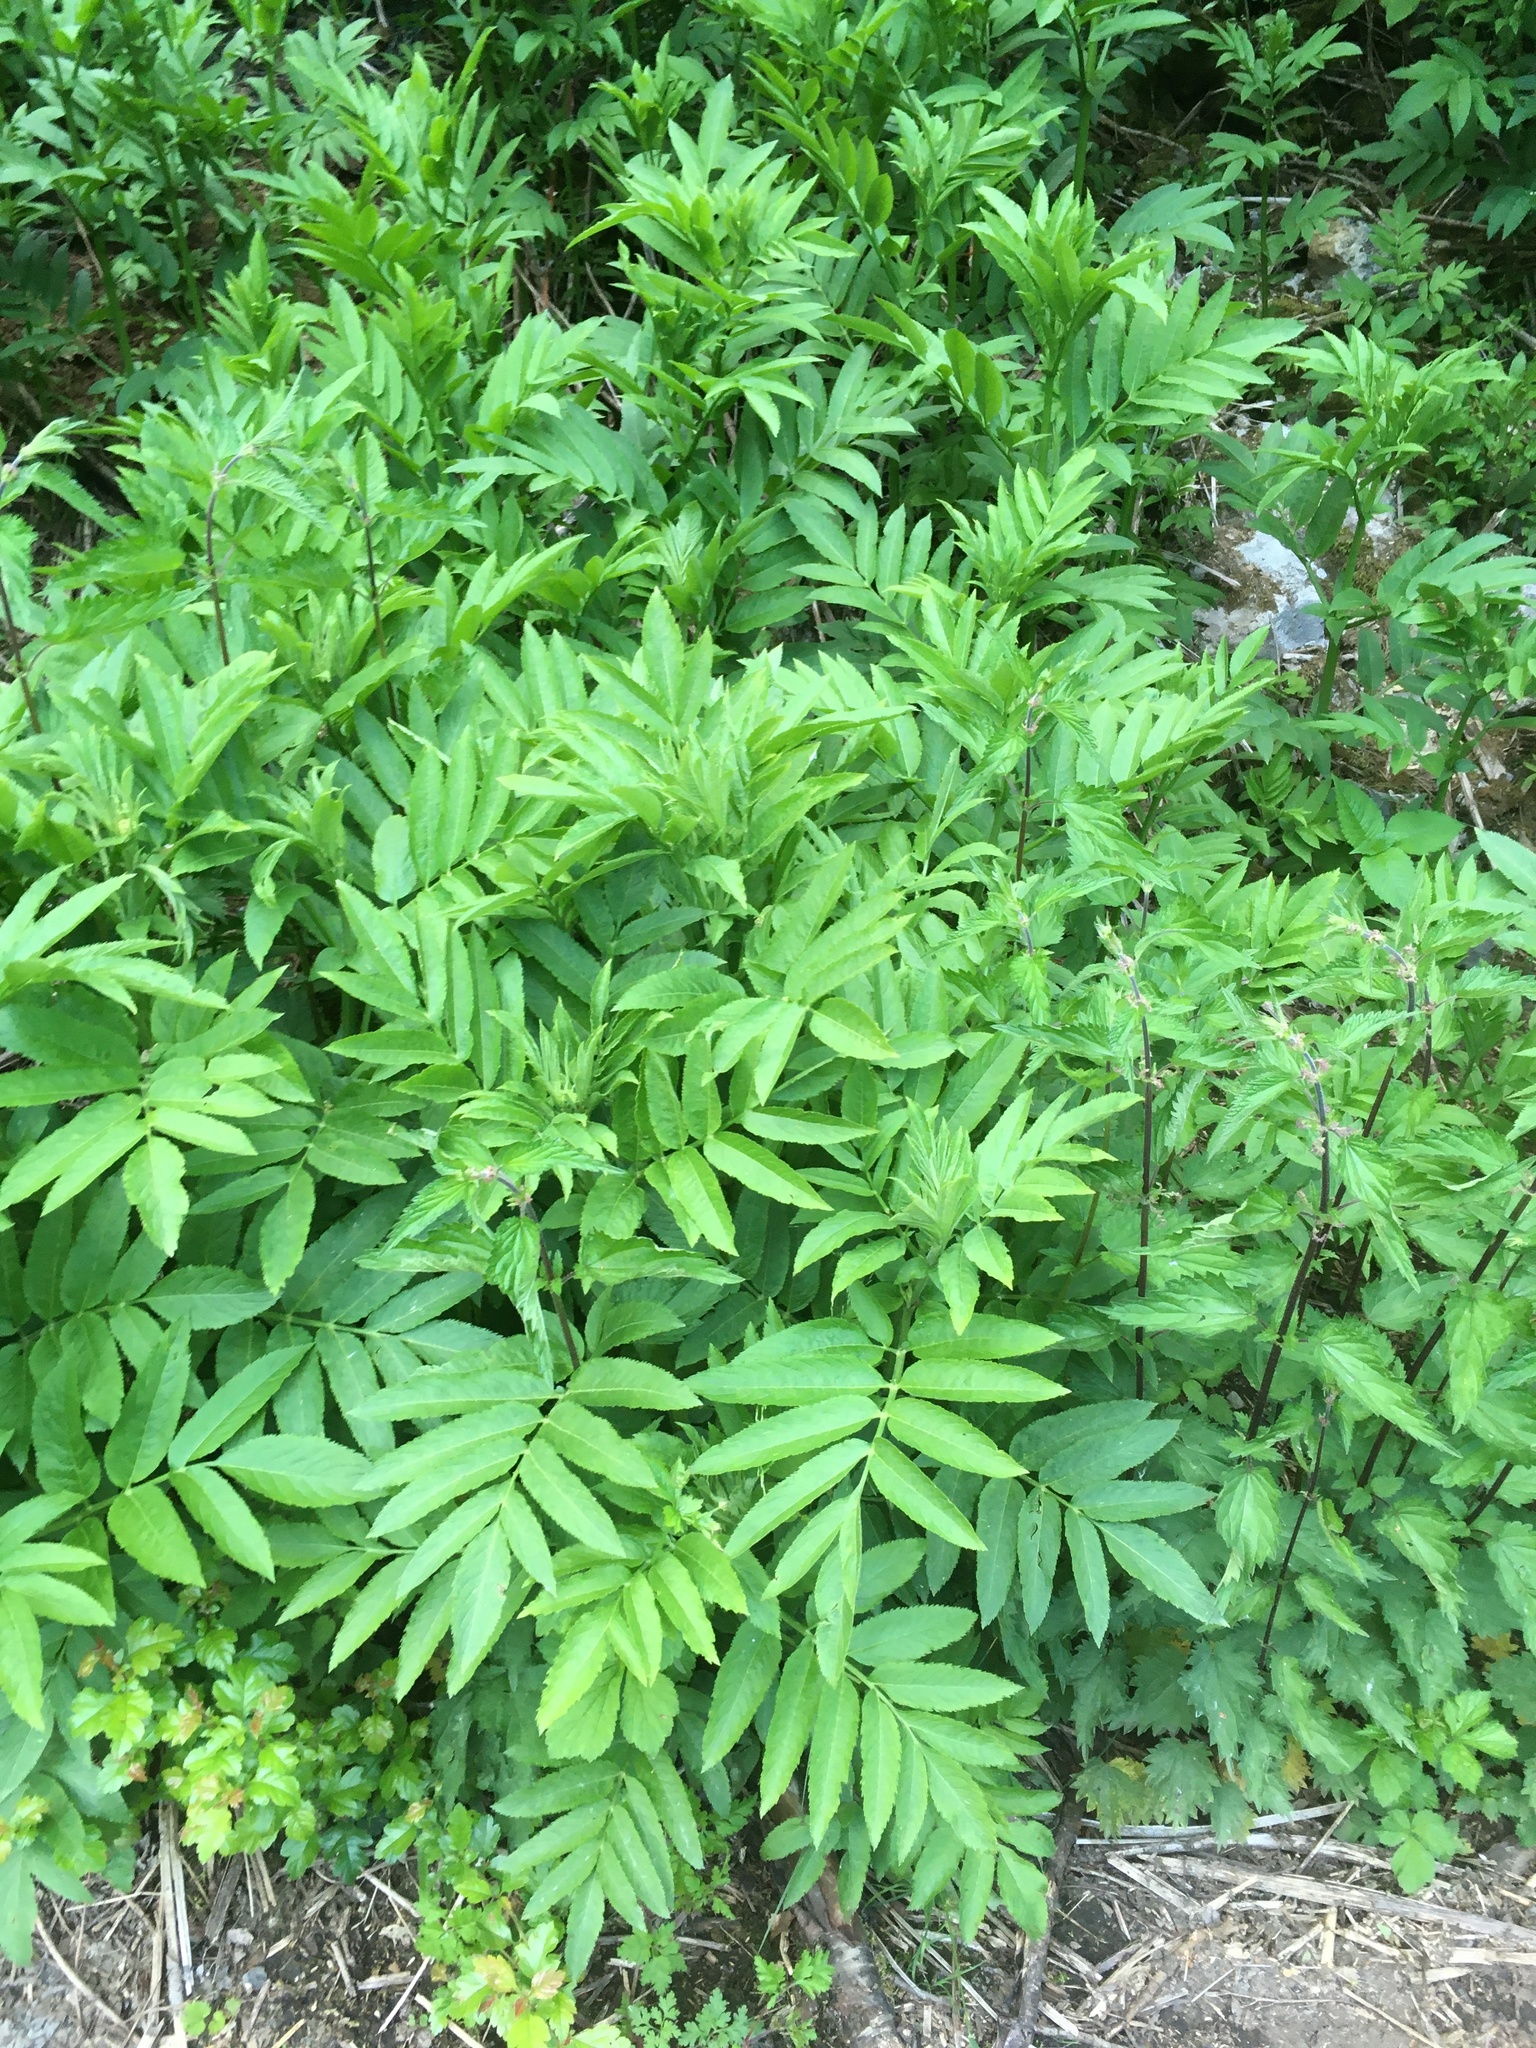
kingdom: Plantae
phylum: Tracheophyta
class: Magnoliopsida
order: Dipsacales
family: Viburnaceae
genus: Sambucus
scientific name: Sambucus ebulus
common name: Dwarf elder
